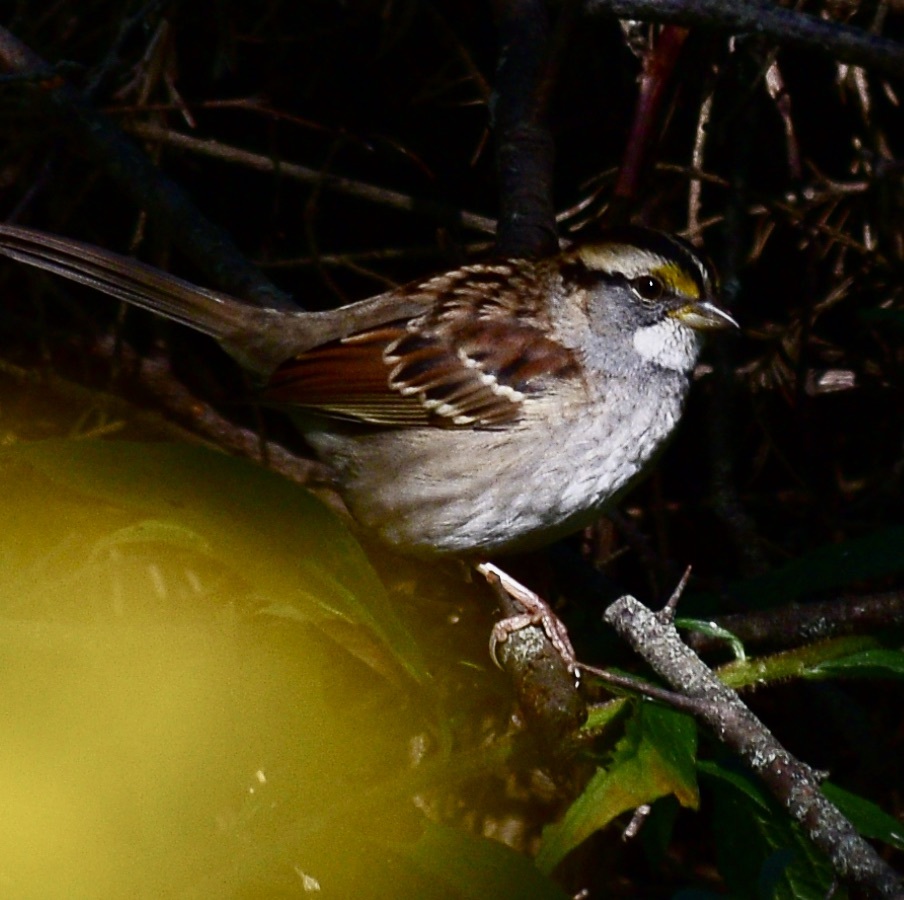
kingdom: Animalia
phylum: Chordata
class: Aves
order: Passeriformes
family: Passerellidae
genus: Zonotrichia
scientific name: Zonotrichia albicollis
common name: White-throated sparrow
